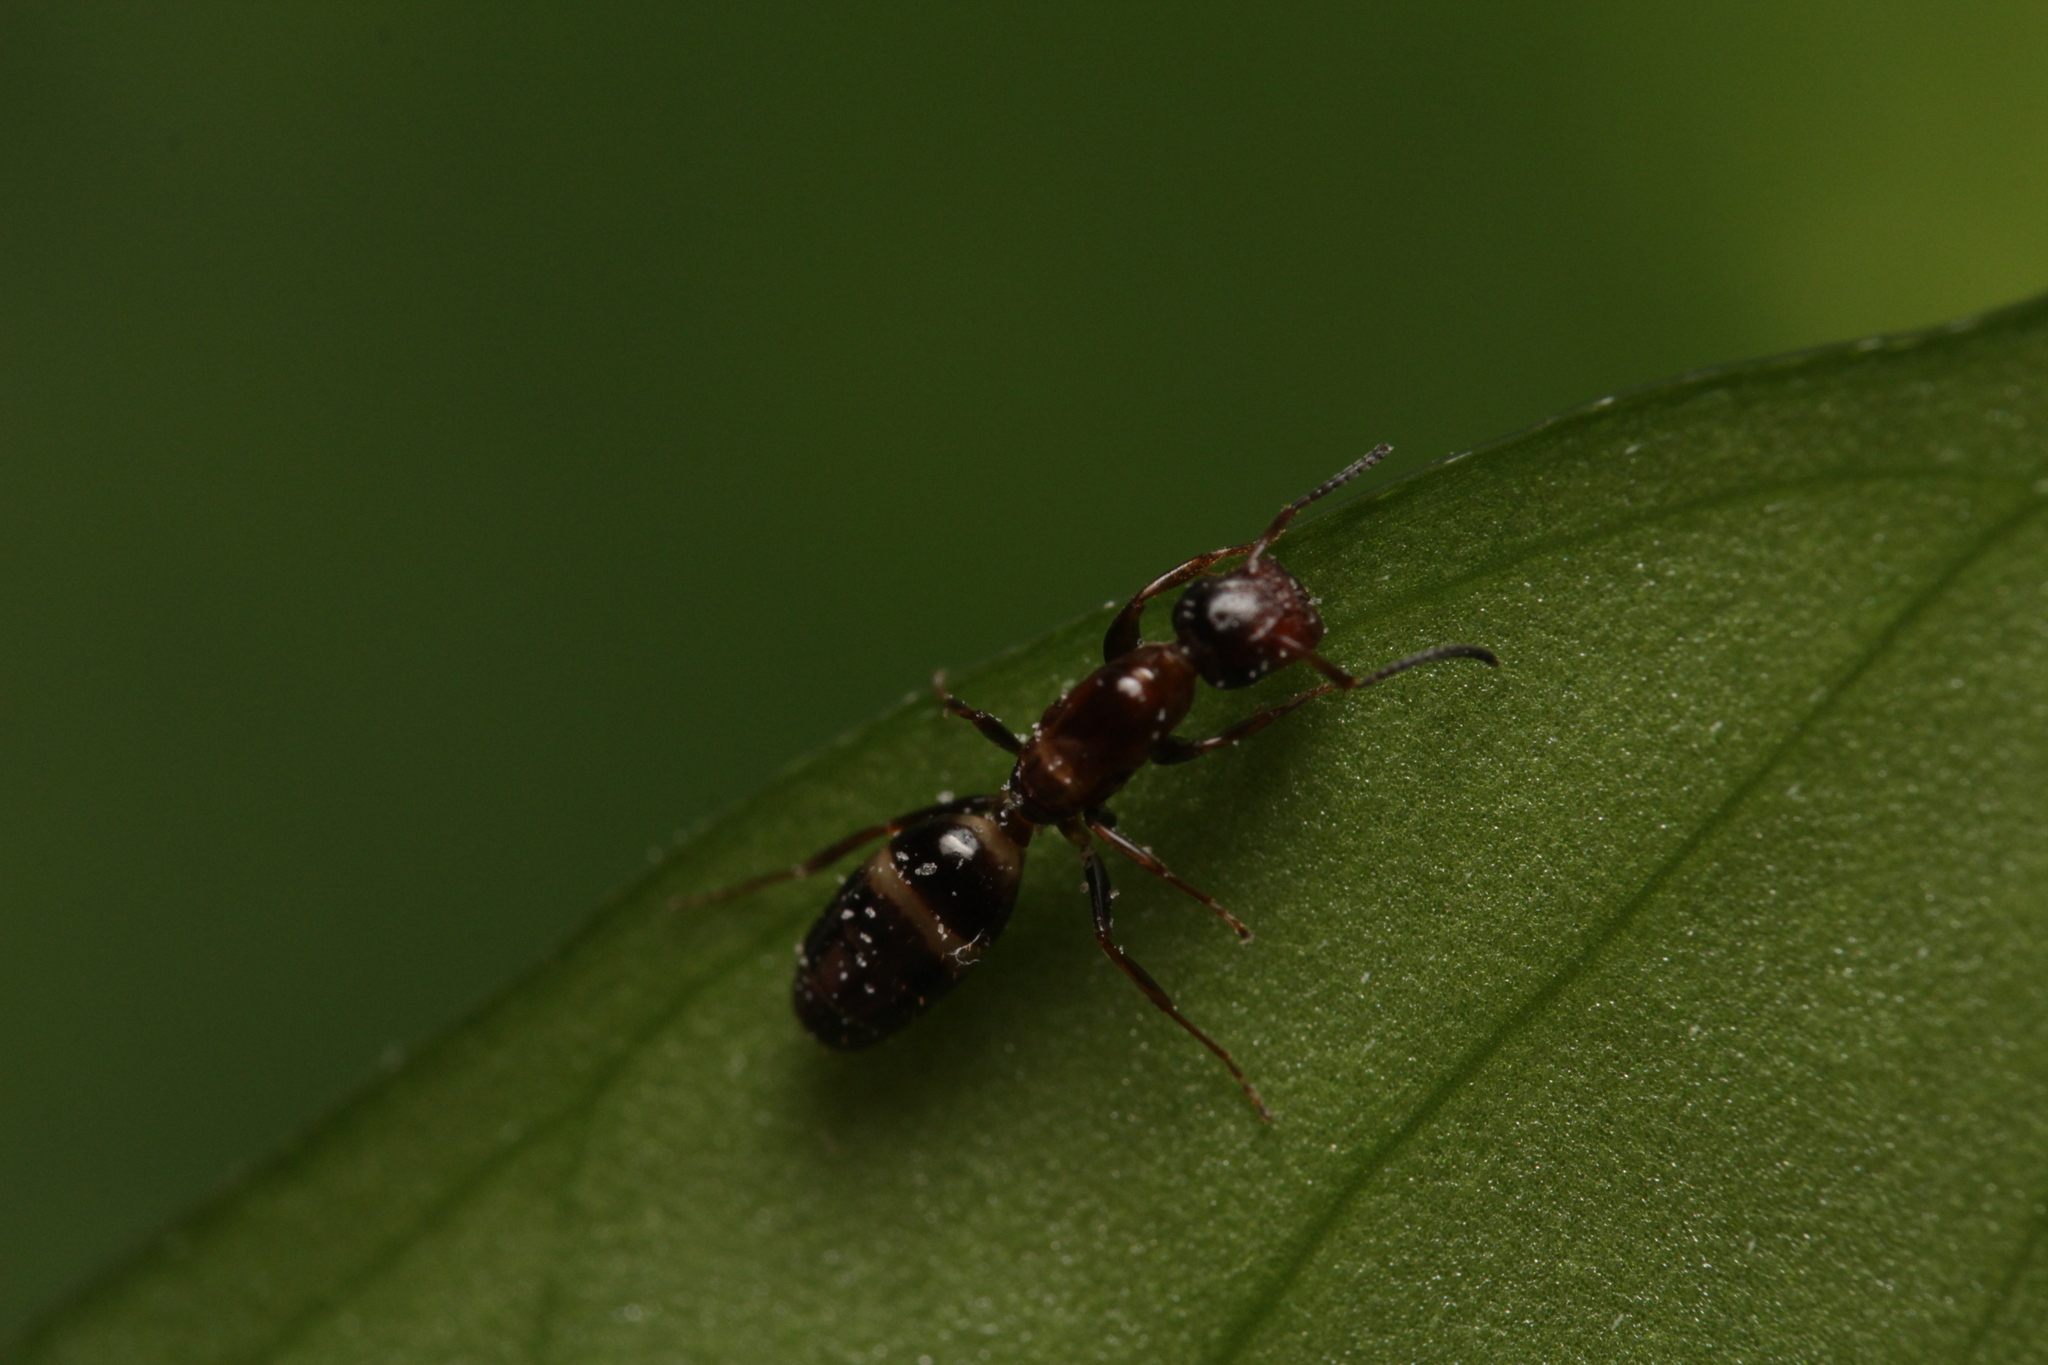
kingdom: Animalia
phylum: Arthropoda
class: Insecta
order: Hymenoptera
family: Formicidae
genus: Camponotus
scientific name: Camponotus truncatus
